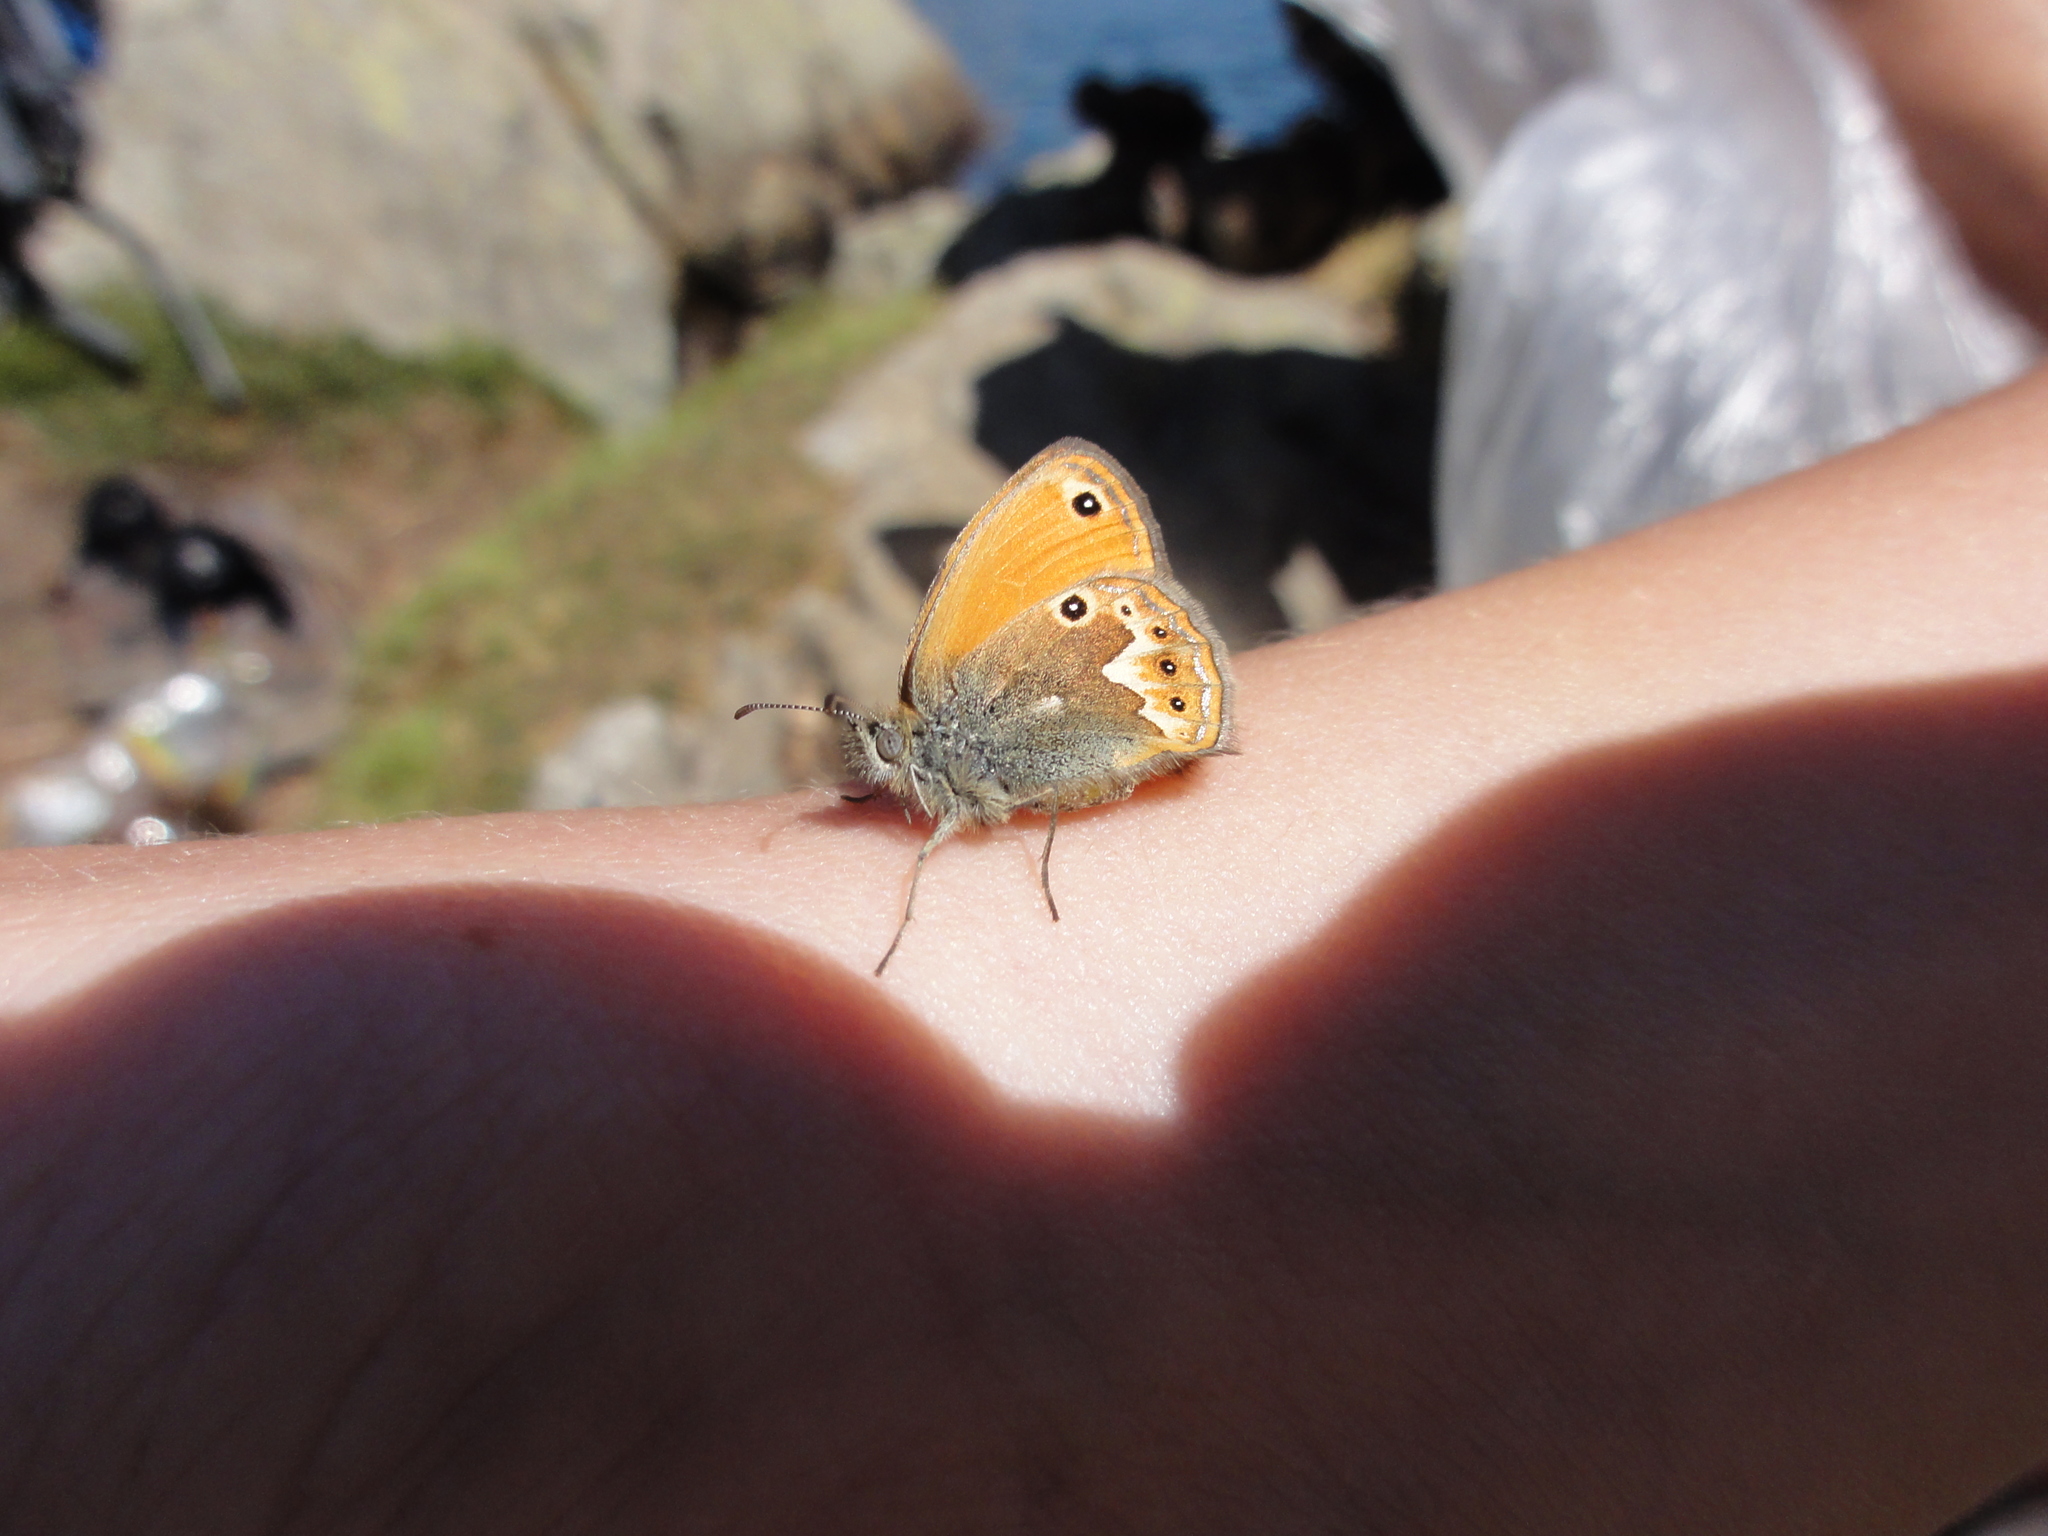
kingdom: Animalia
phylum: Arthropoda
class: Insecta
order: Lepidoptera
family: Nymphalidae
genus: Coenonympha
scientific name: Coenonympha corinna
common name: Corsican heath
